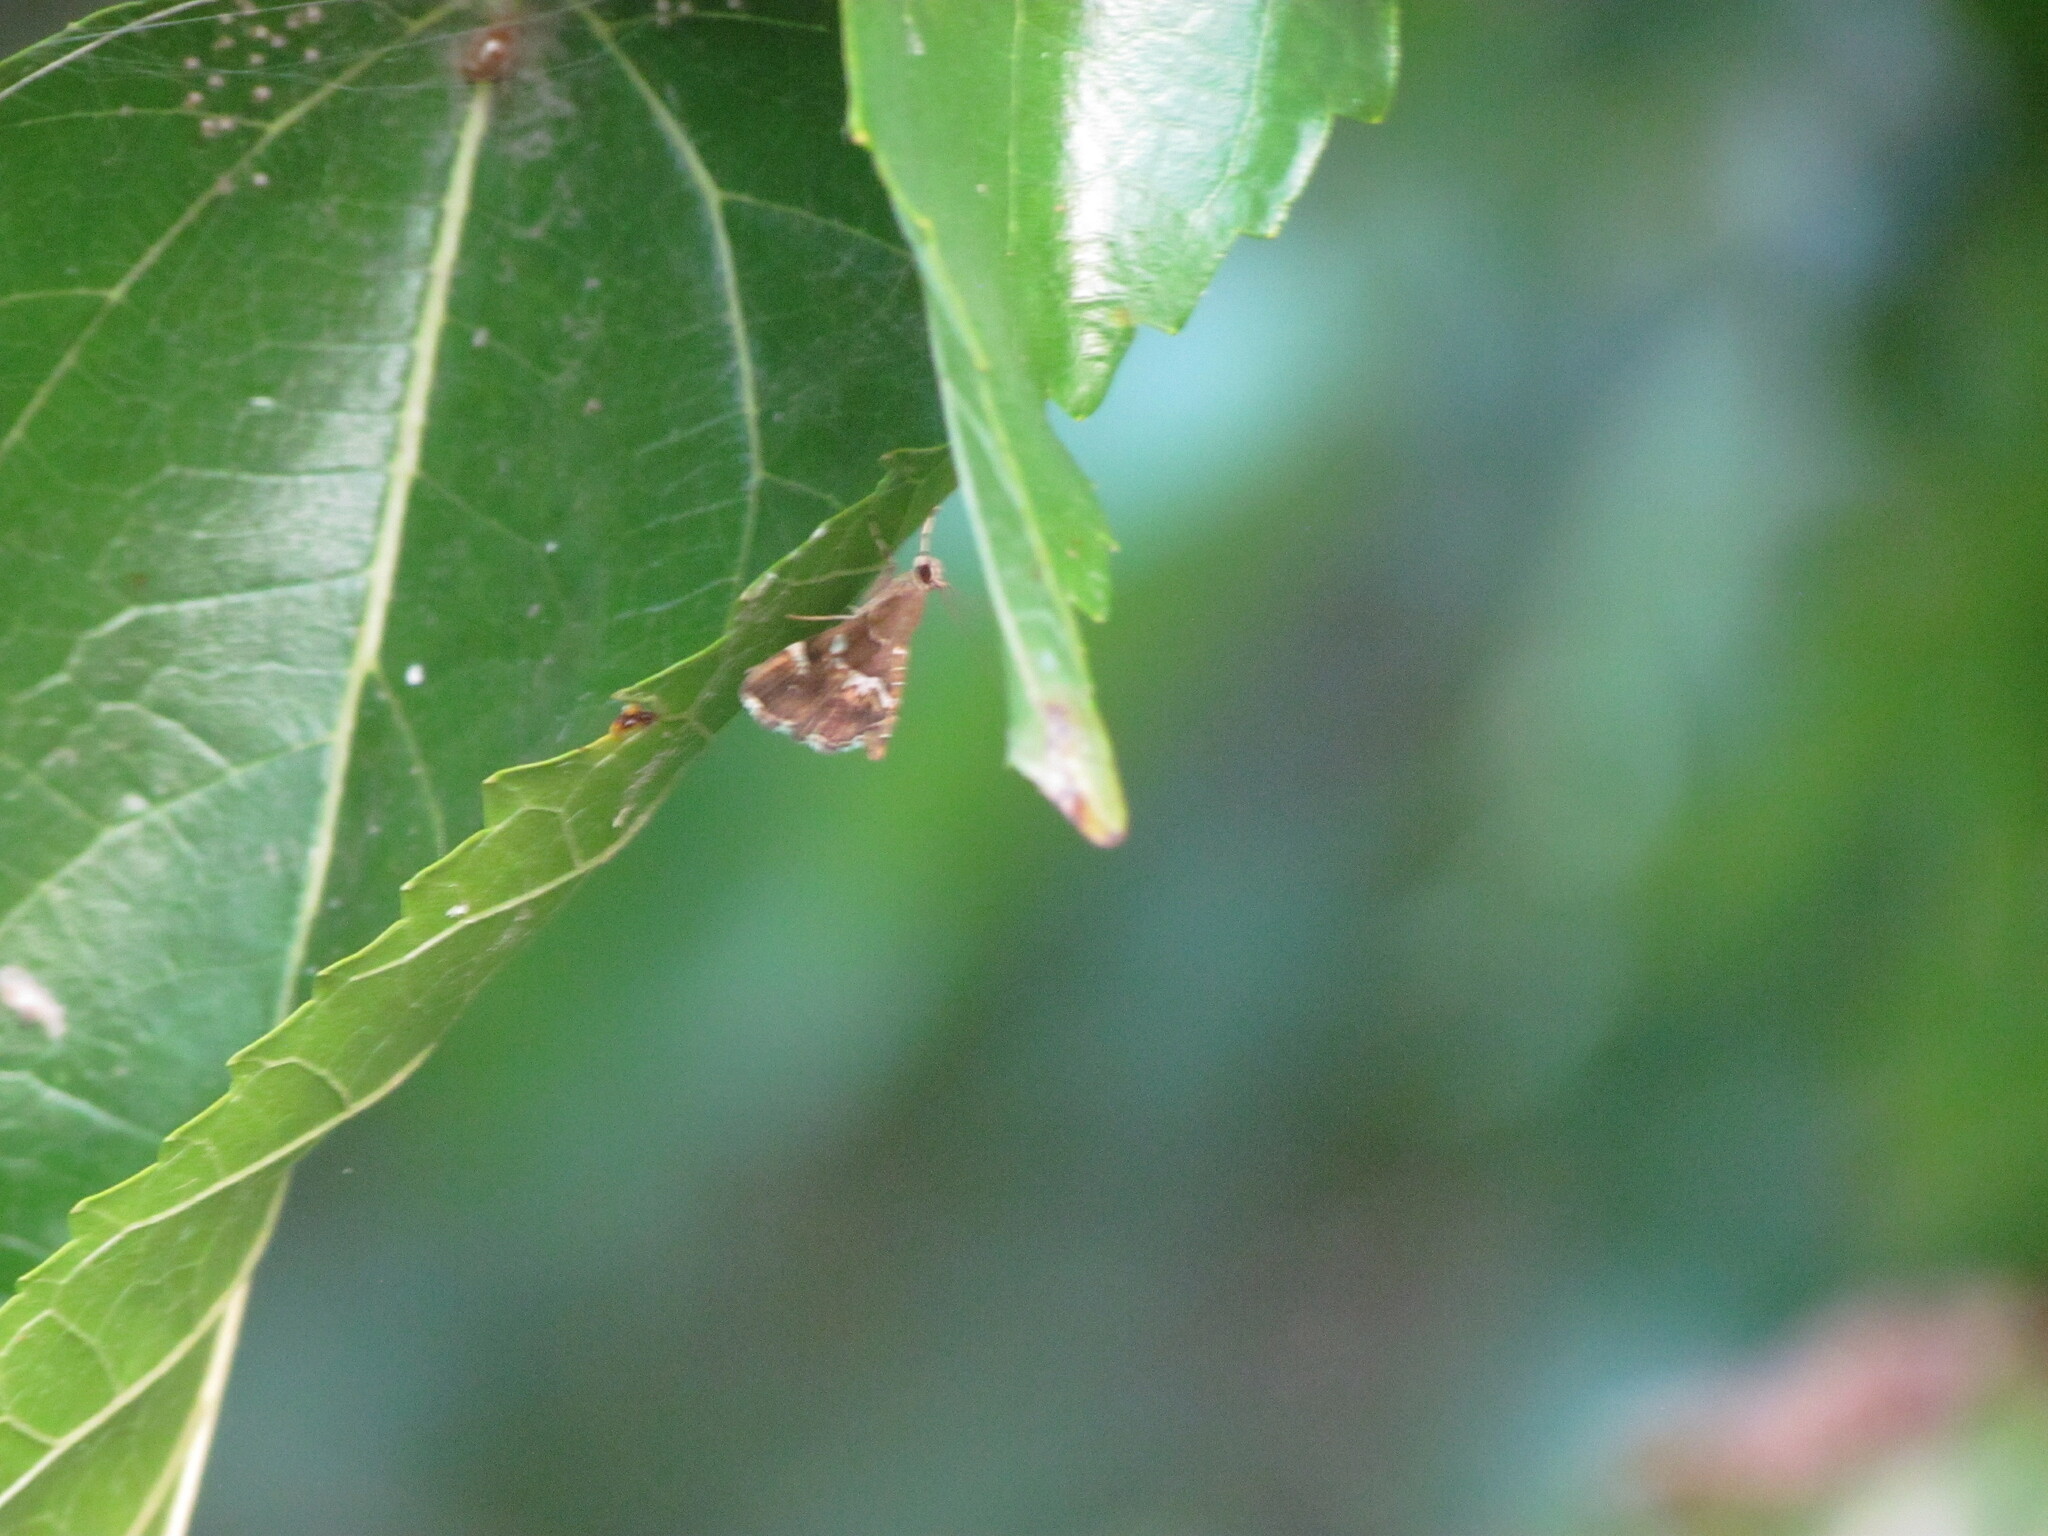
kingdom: Animalia
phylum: Arthropoda
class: Insecta
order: Lepidoptera
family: Crambidae
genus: Hymenia
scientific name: Hymenia perspectalis
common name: Spotted beet webworm
